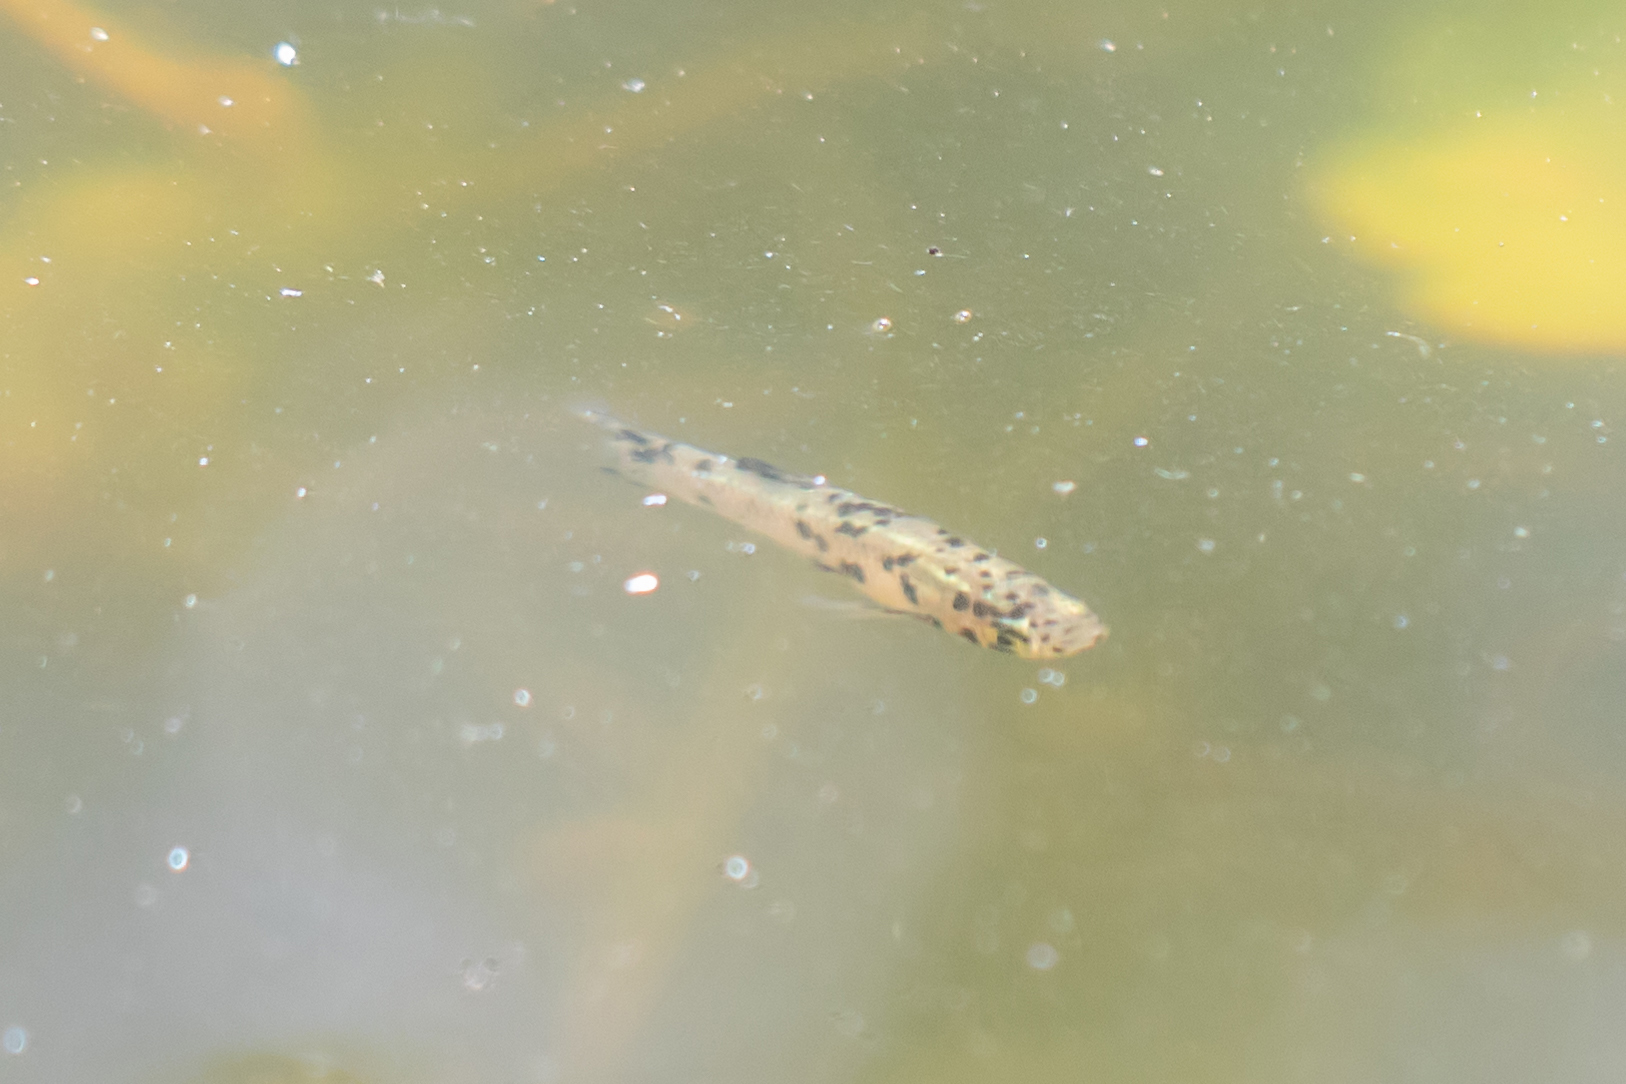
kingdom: Animalia
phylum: Chordata
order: Cyprinodontiformes
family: Poeciliidae
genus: Gambusia
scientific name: Gambusia holbrooki
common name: Eastern mosquitofish
